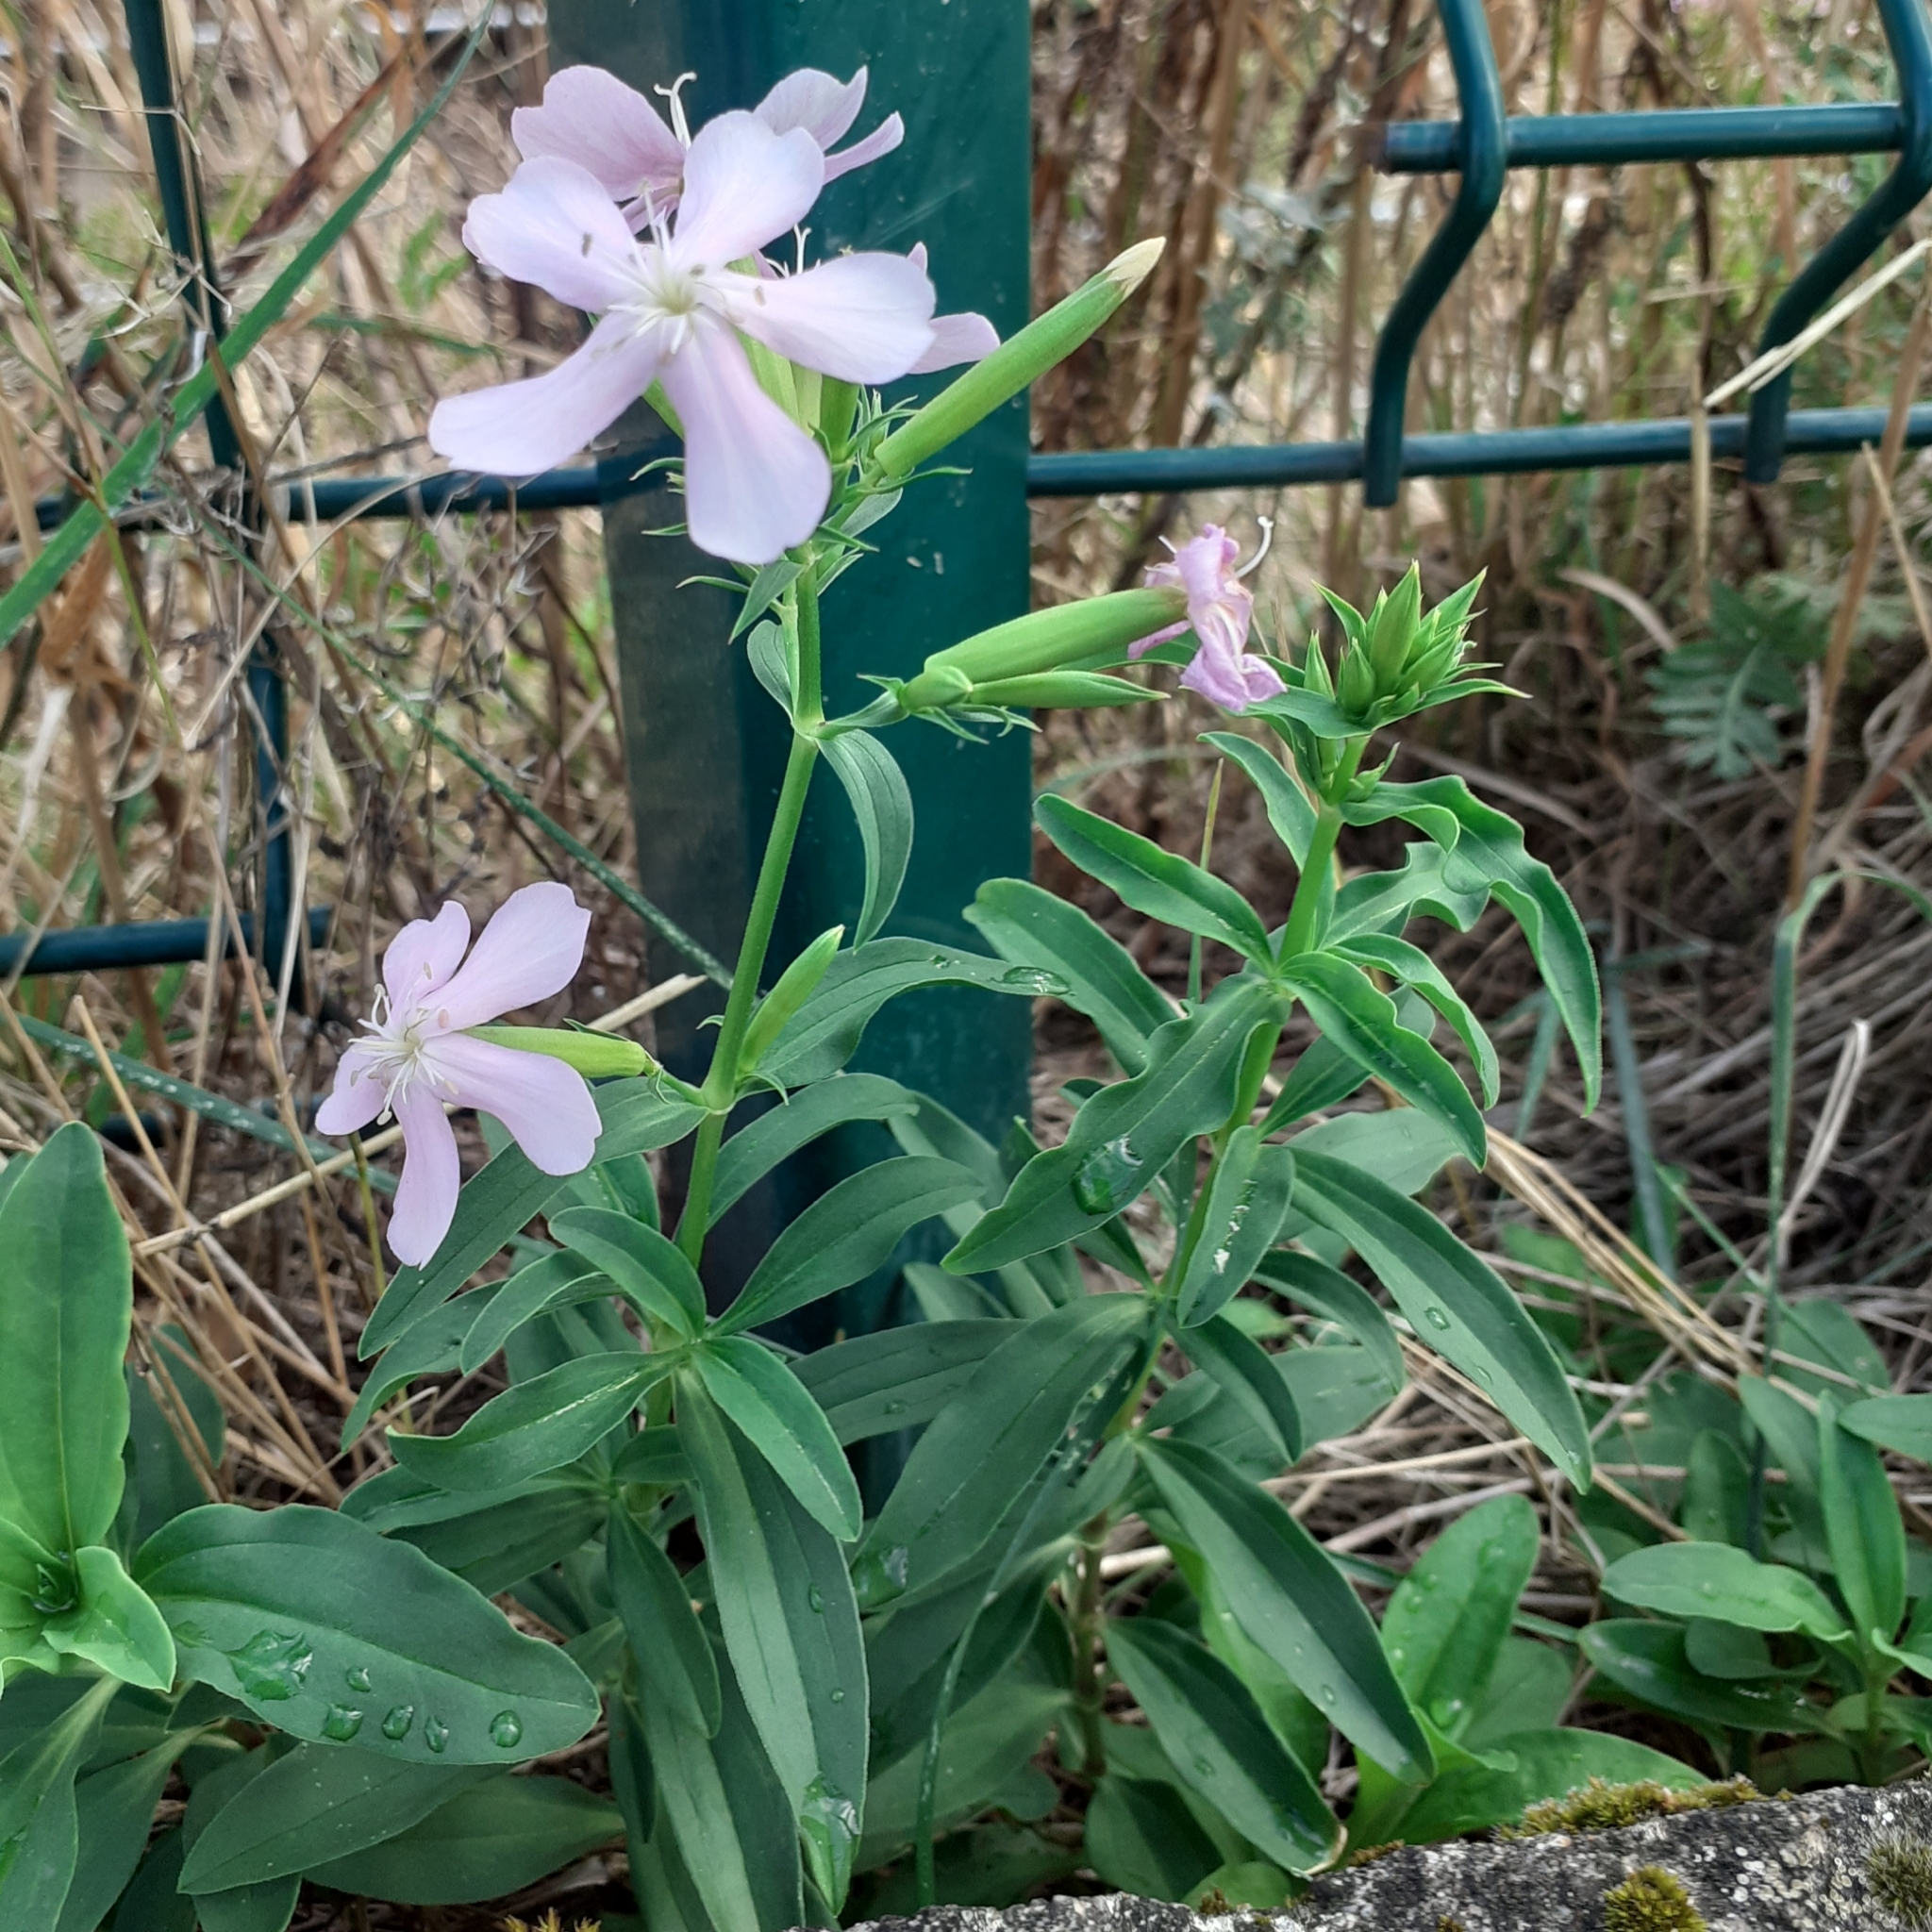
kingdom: Plantae
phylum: Tracheophyta
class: Magnoliopsida
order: Caryophyllales
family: Caryophyllaceae
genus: Saponaria
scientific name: Saponaria officinalis
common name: Soapwort
